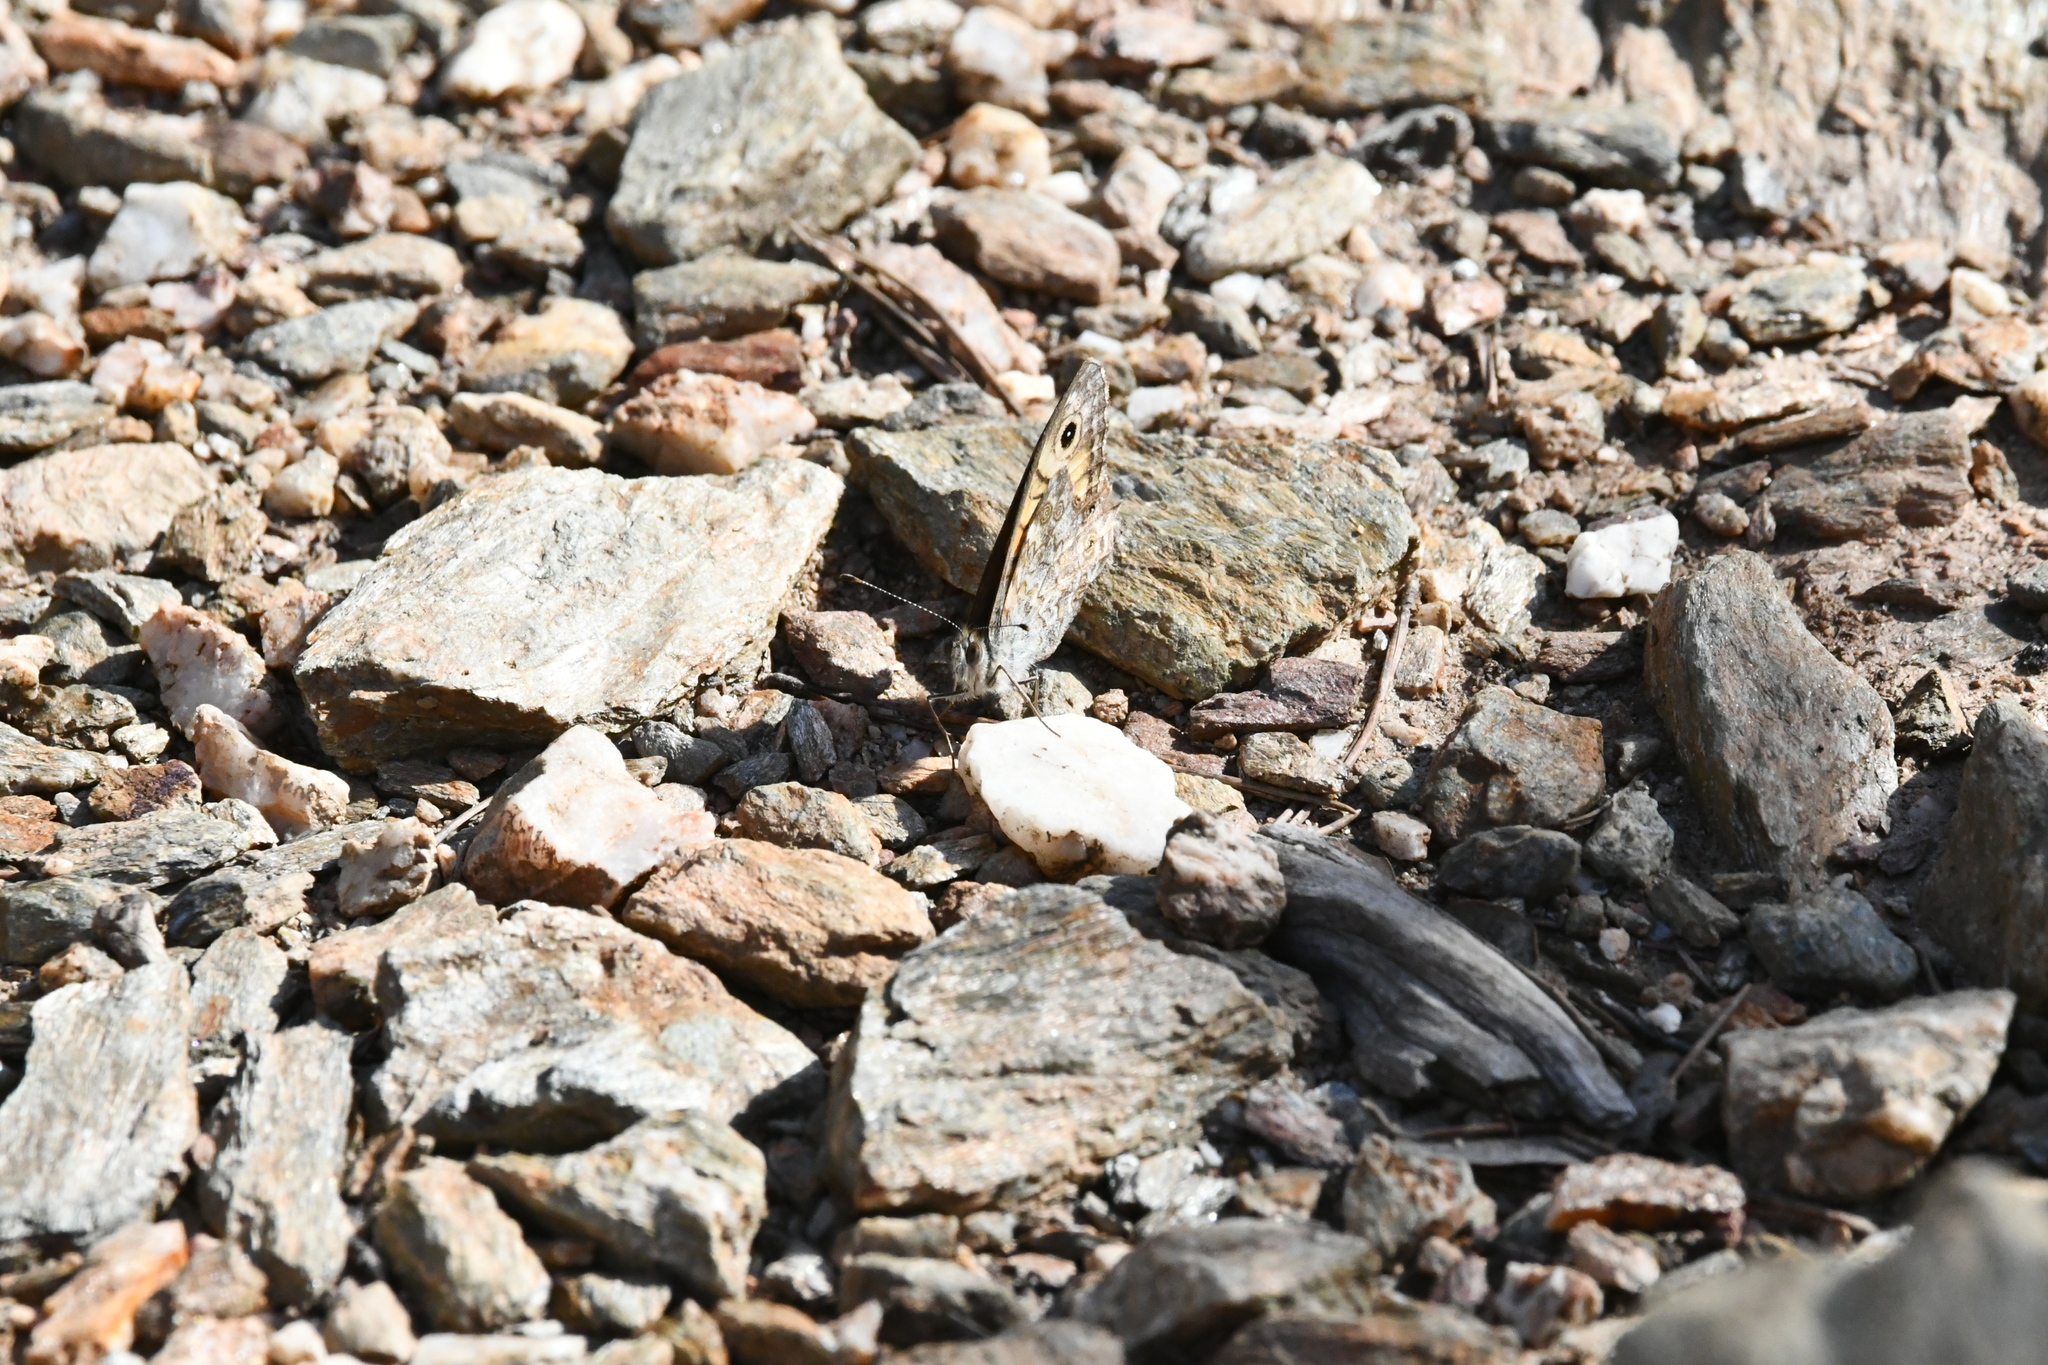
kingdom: Animalia
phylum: Arthropoda
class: Insecta
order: Lepidoptera
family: Nymphalidae
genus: Pararge
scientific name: Pararge Lasiommata megera
